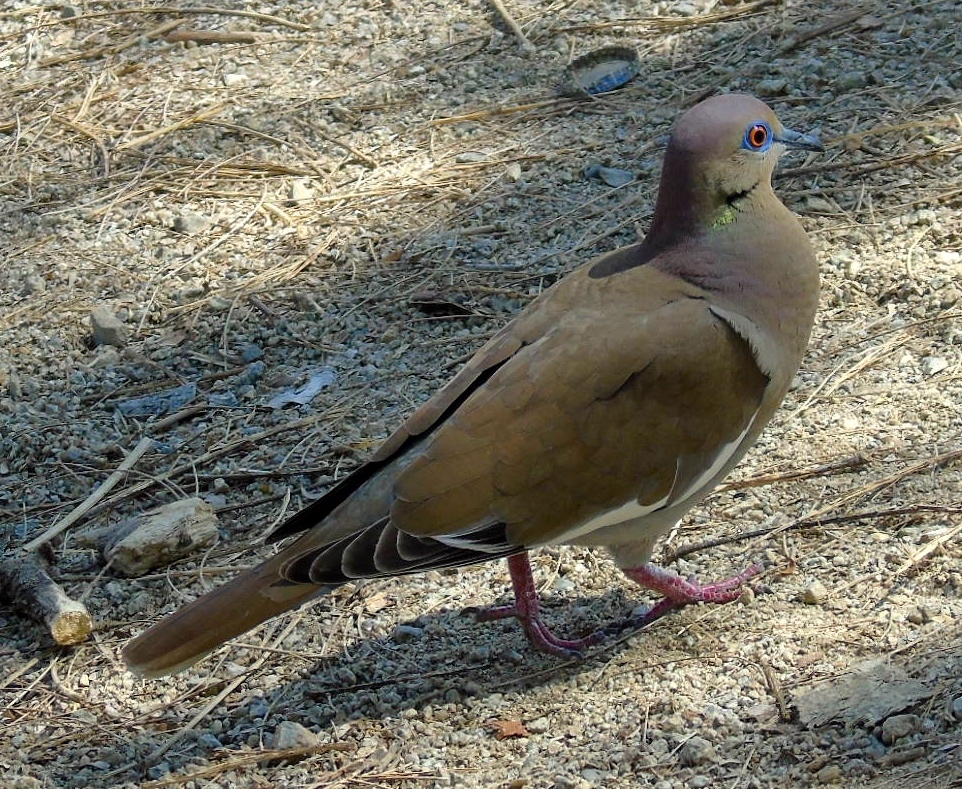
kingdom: Animalia
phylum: Chordata
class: Aves
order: Columbiformes
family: Columbidae
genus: Zenaida
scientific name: Zenaida asiatica
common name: White-winged dove
